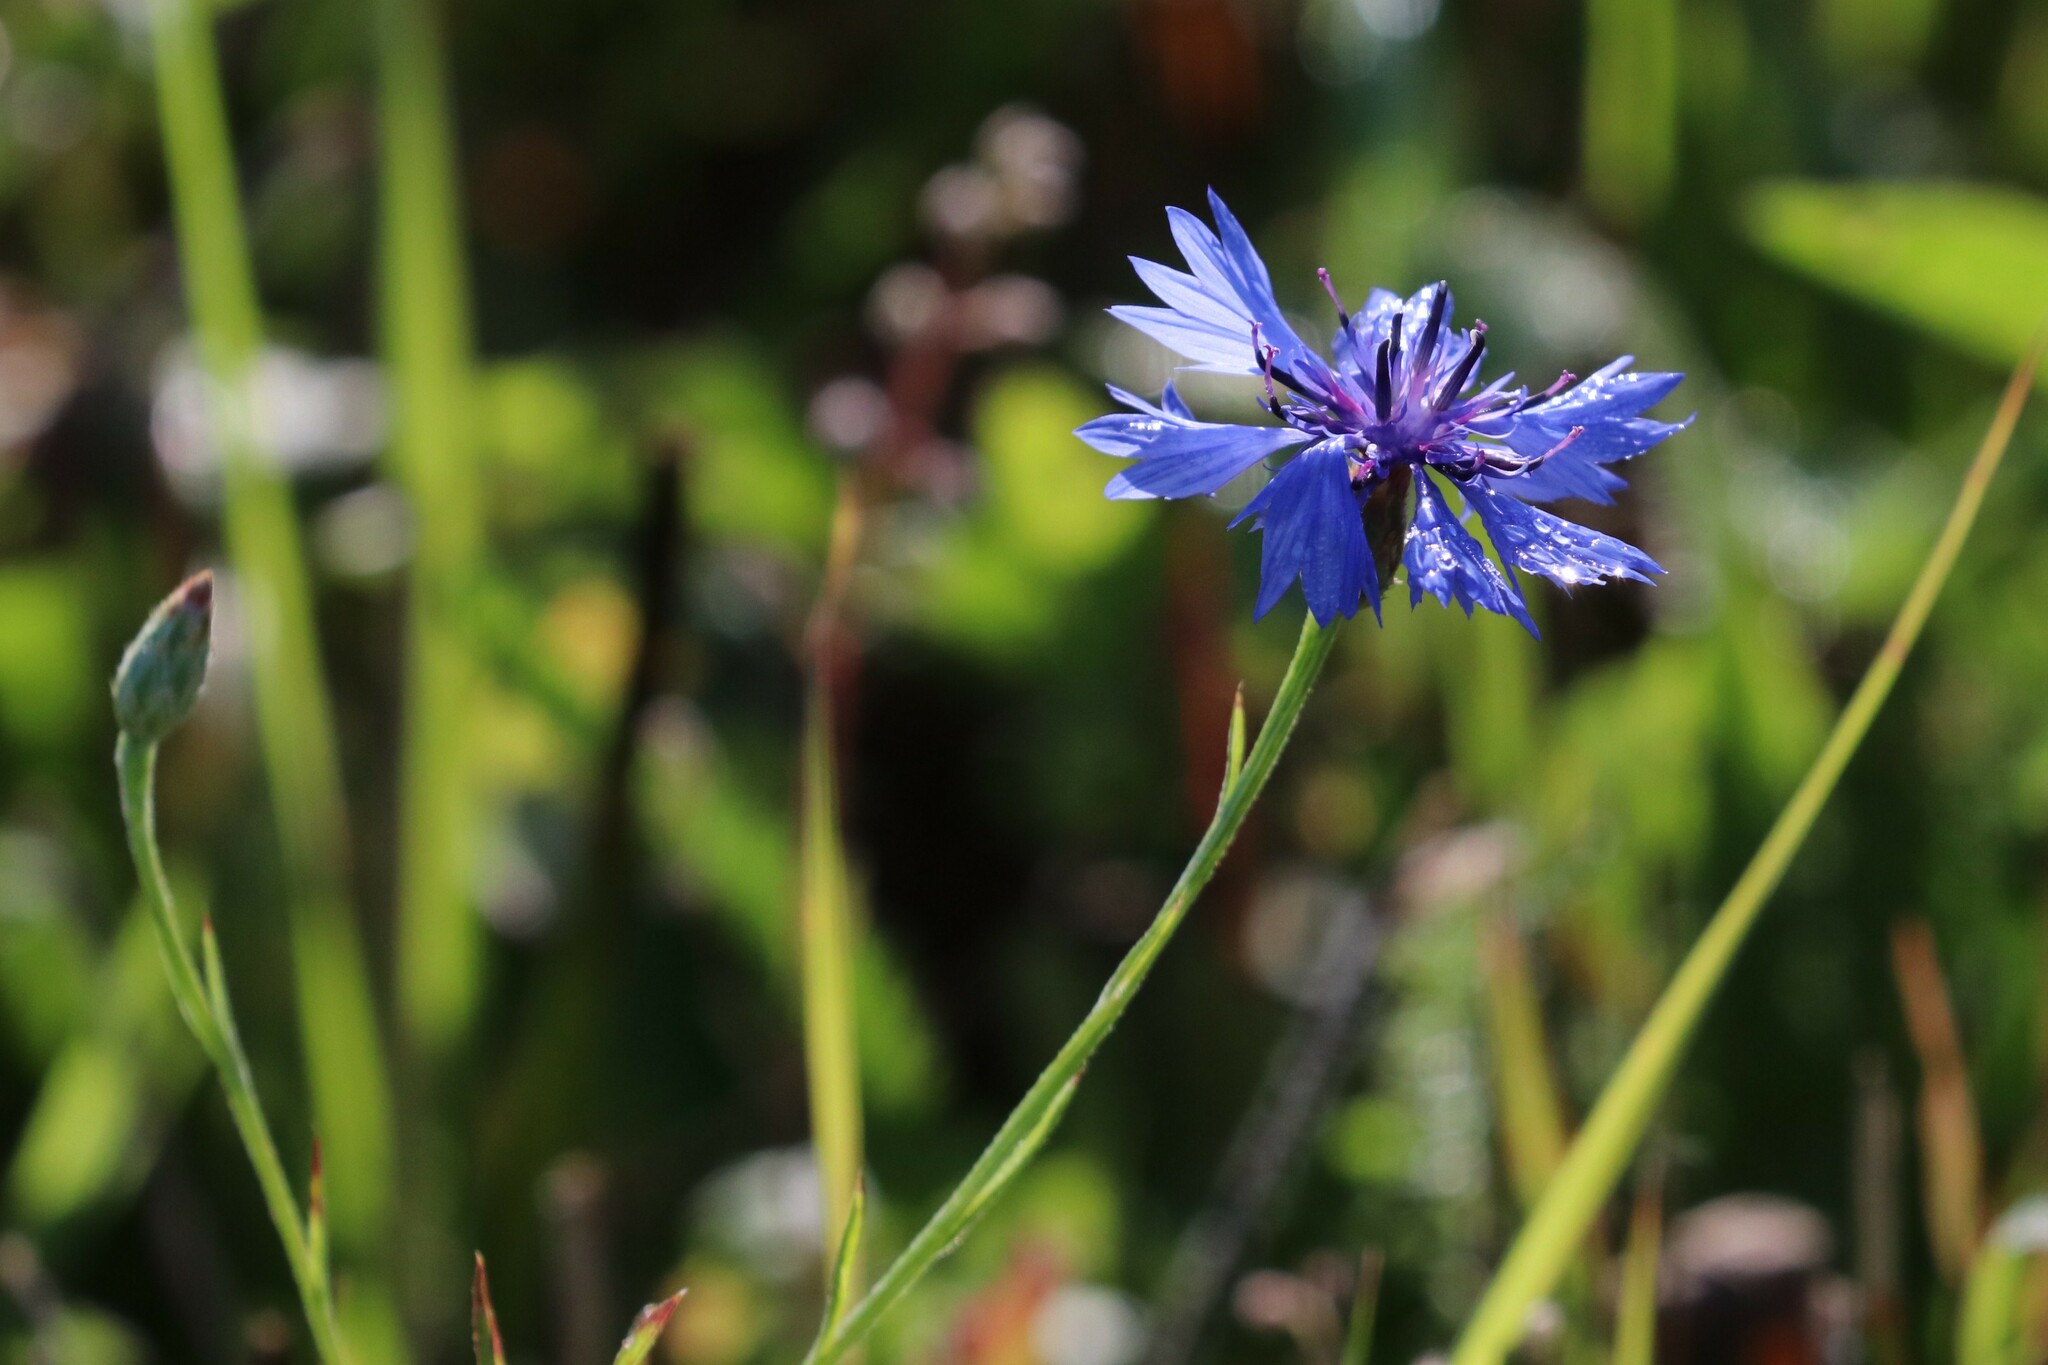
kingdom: Plantae
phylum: Tracheophyta
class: Magnoliopsida
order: Asterales
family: Asteraceae
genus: Centaurea
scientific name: Centaurea cyanus
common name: Cornflower
